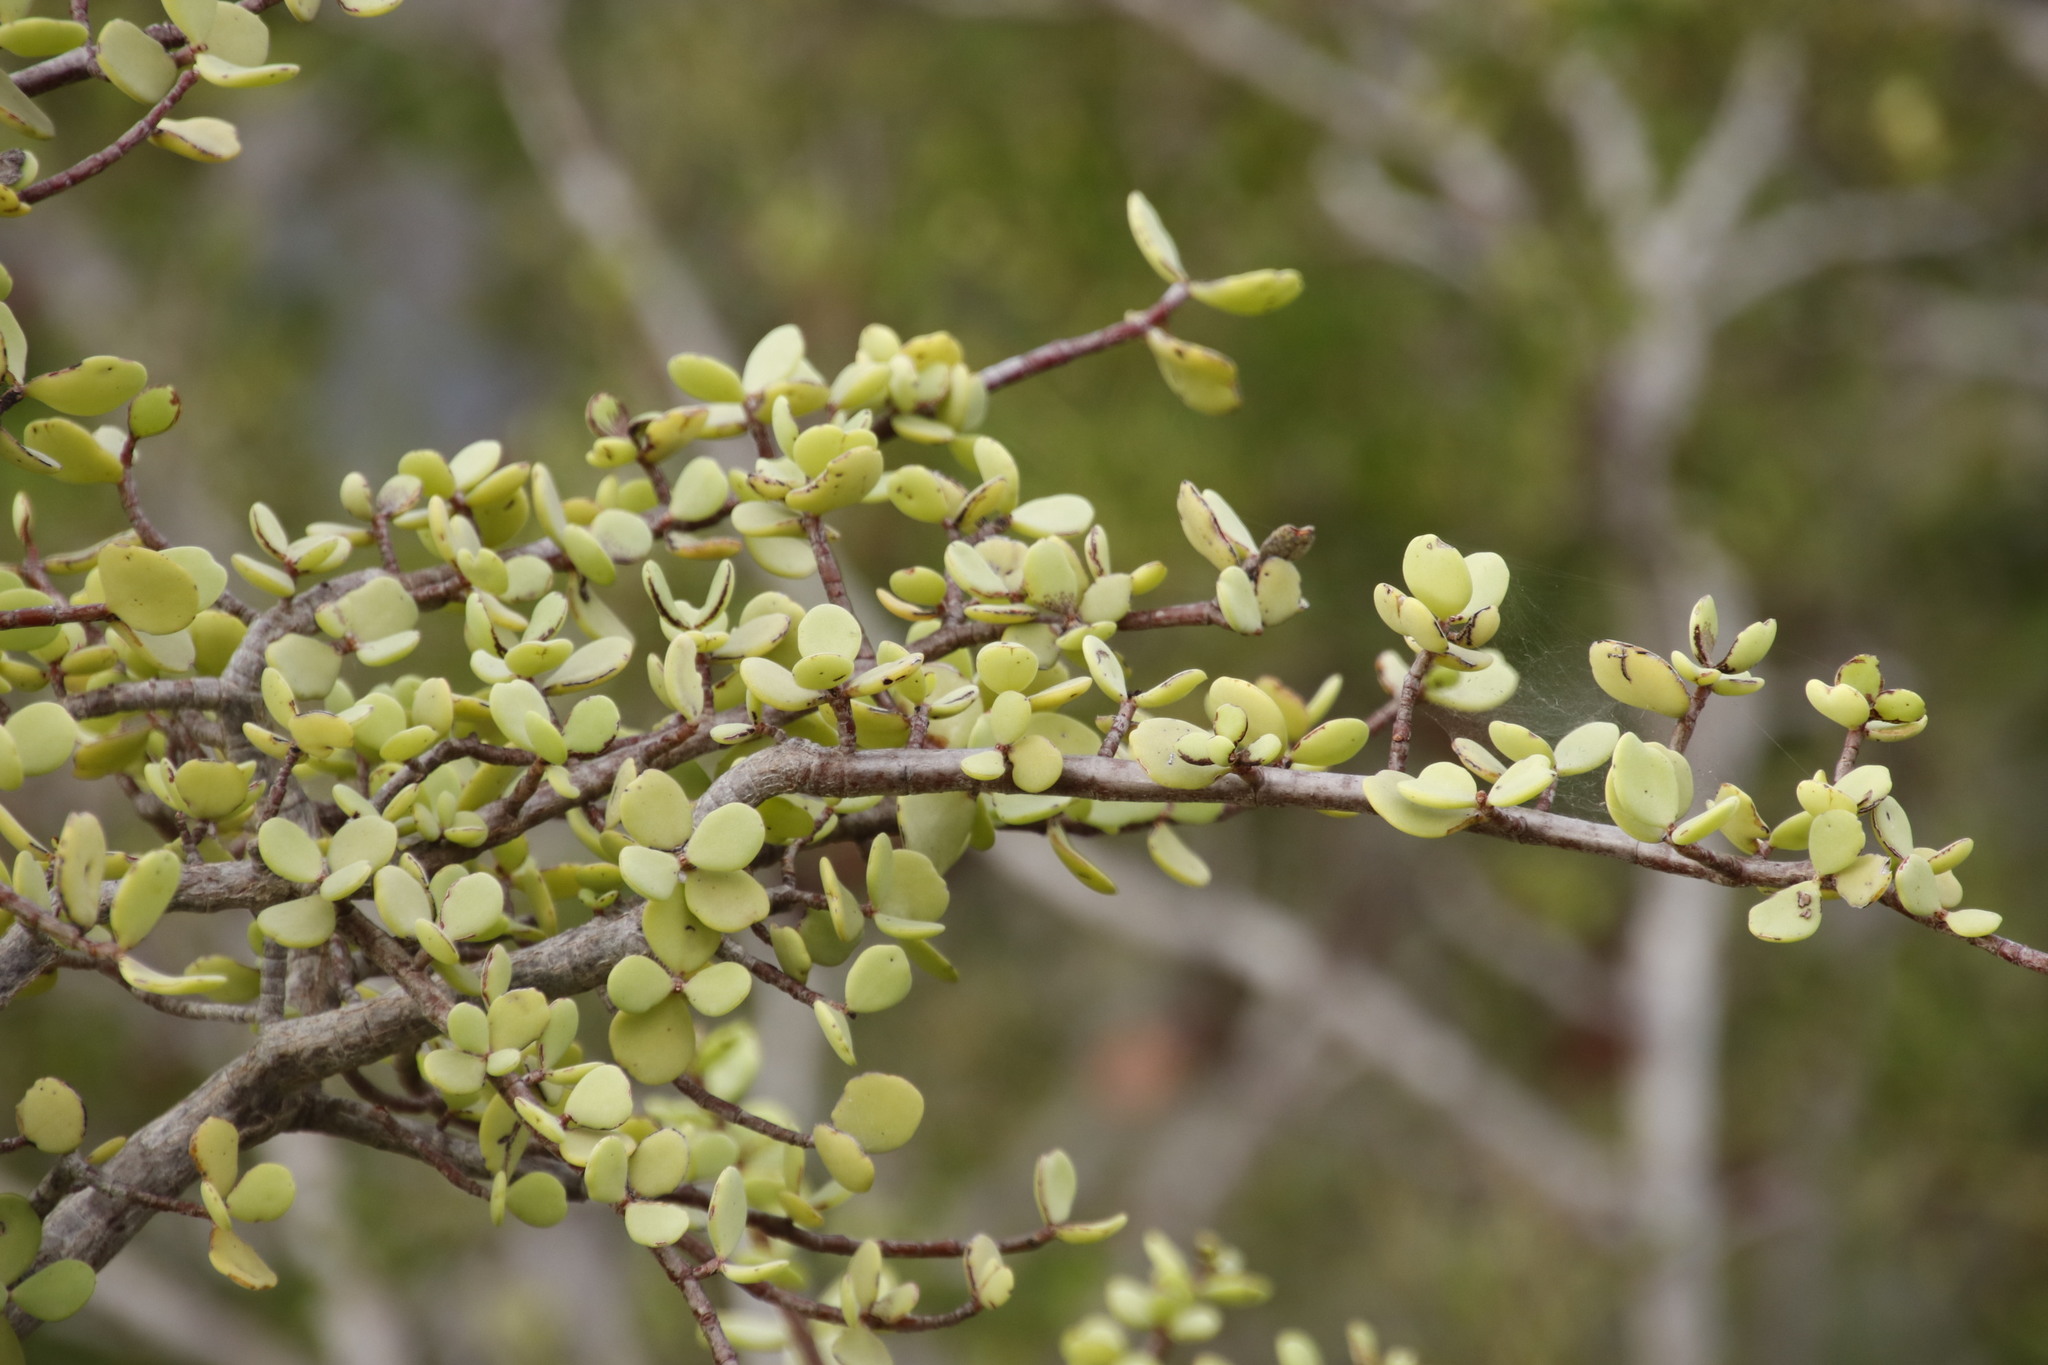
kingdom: Plantae
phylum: Tracheophyta
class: Magnoliopsida
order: Caryophyllales
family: Didiereaceae
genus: Portulacaria
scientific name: Portulacaria afra
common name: Elephant-bush
